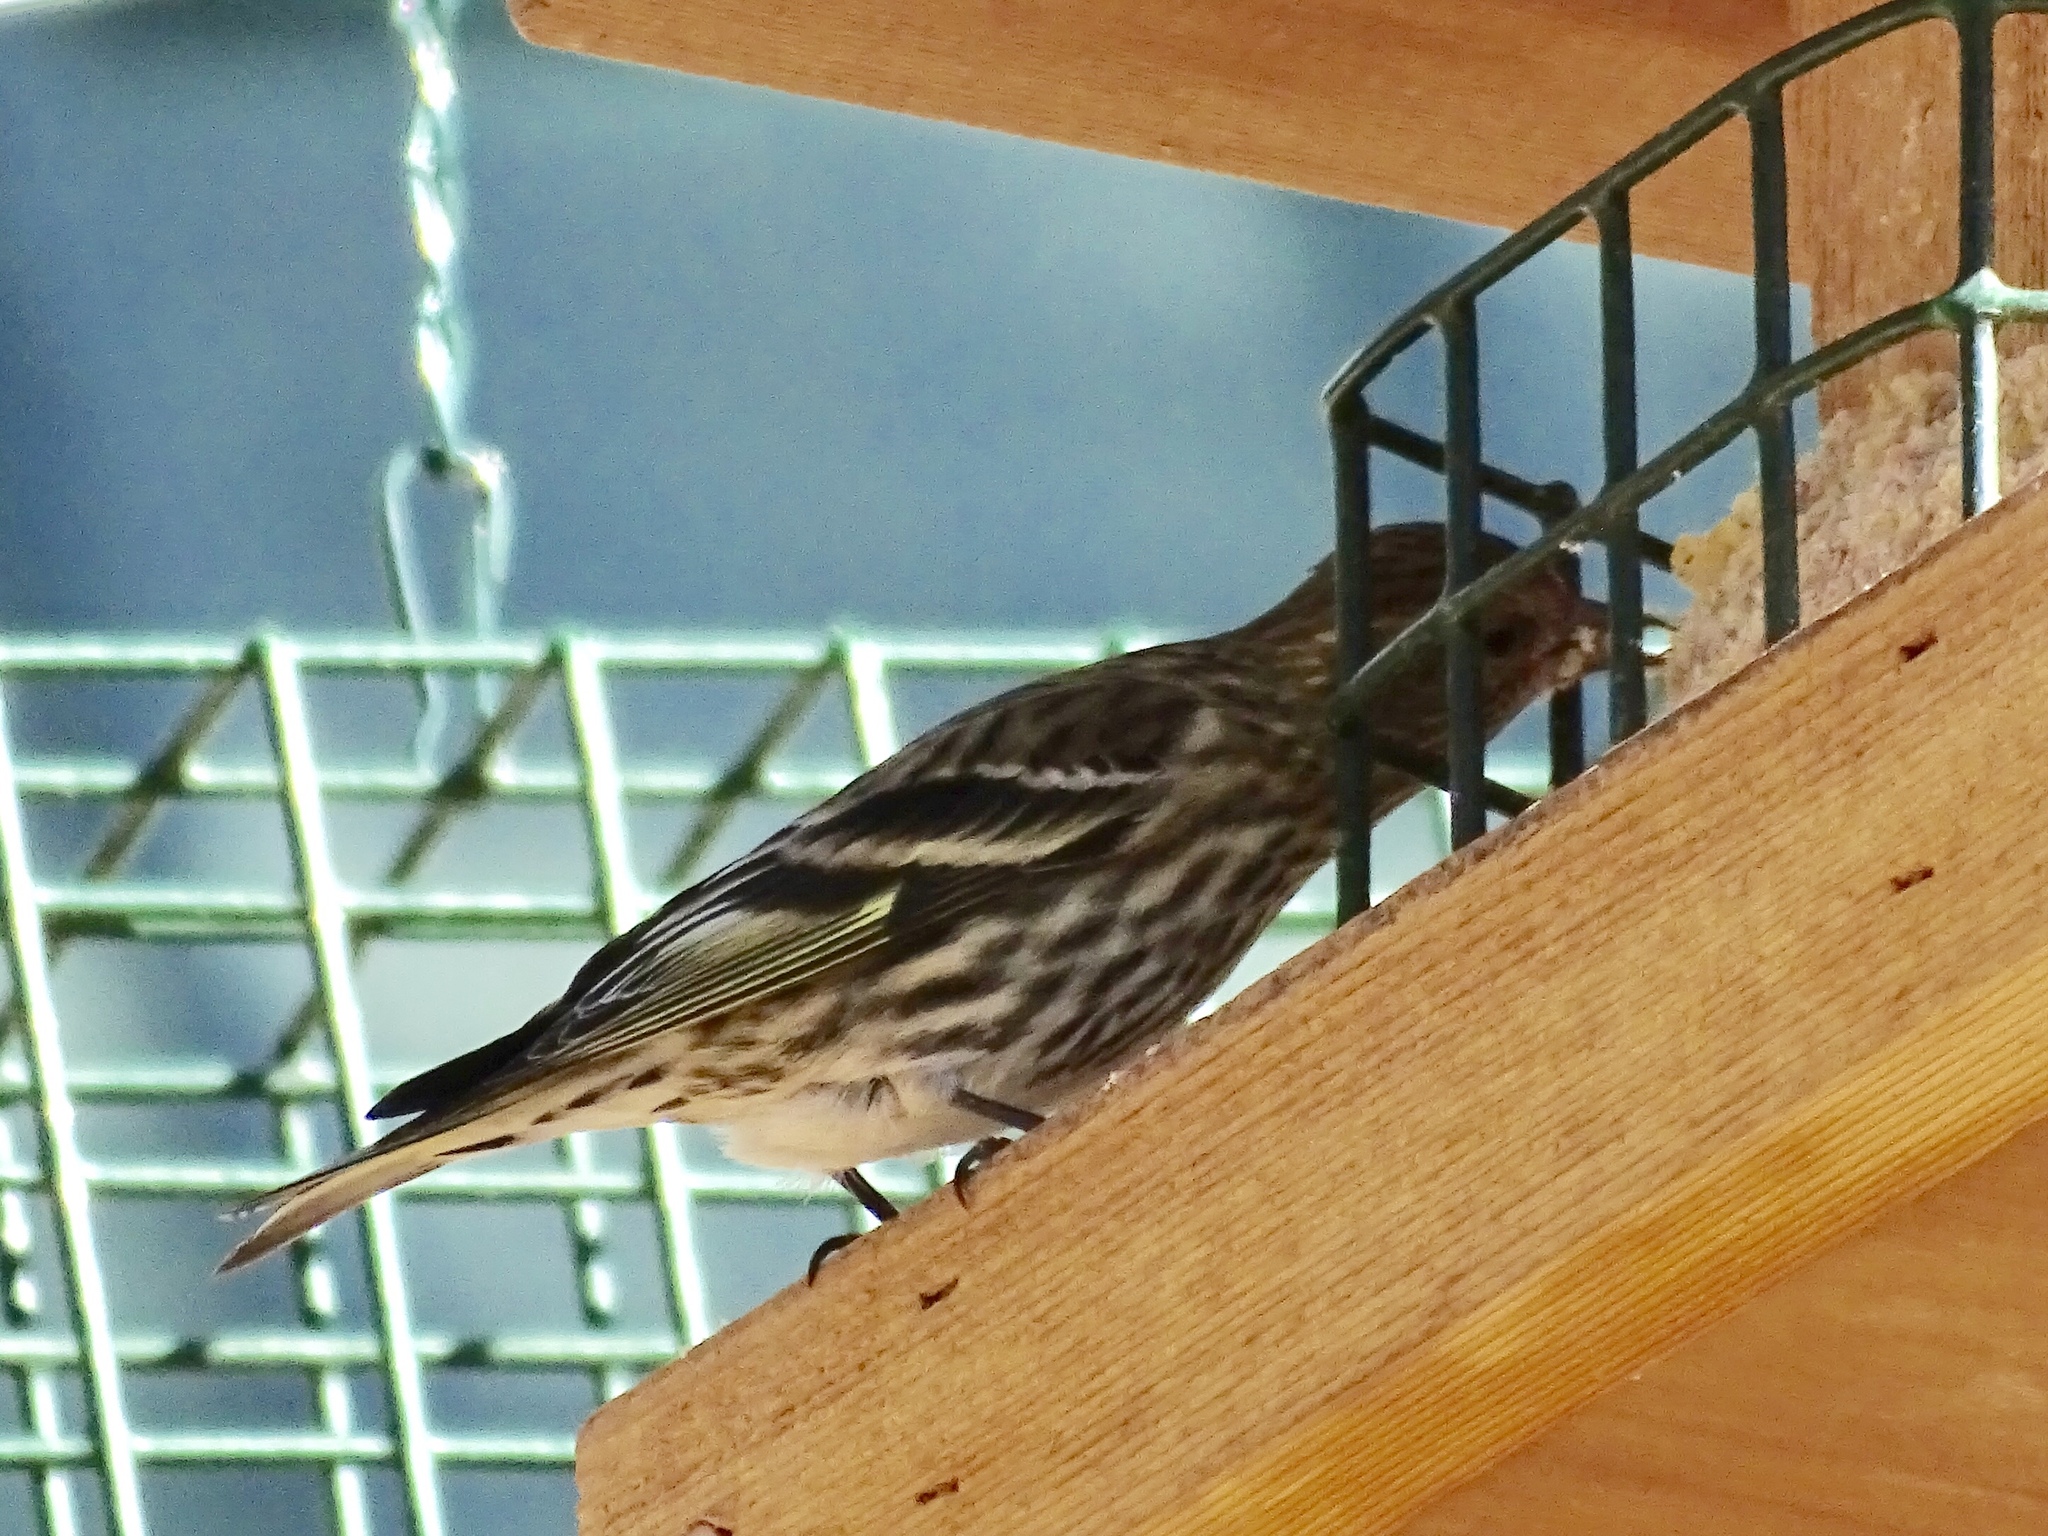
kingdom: Animalia
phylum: Chordata
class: Aves
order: Passeriformes
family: Fringillidae
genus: Spinus
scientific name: Spinus pinus
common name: Pine siskin
